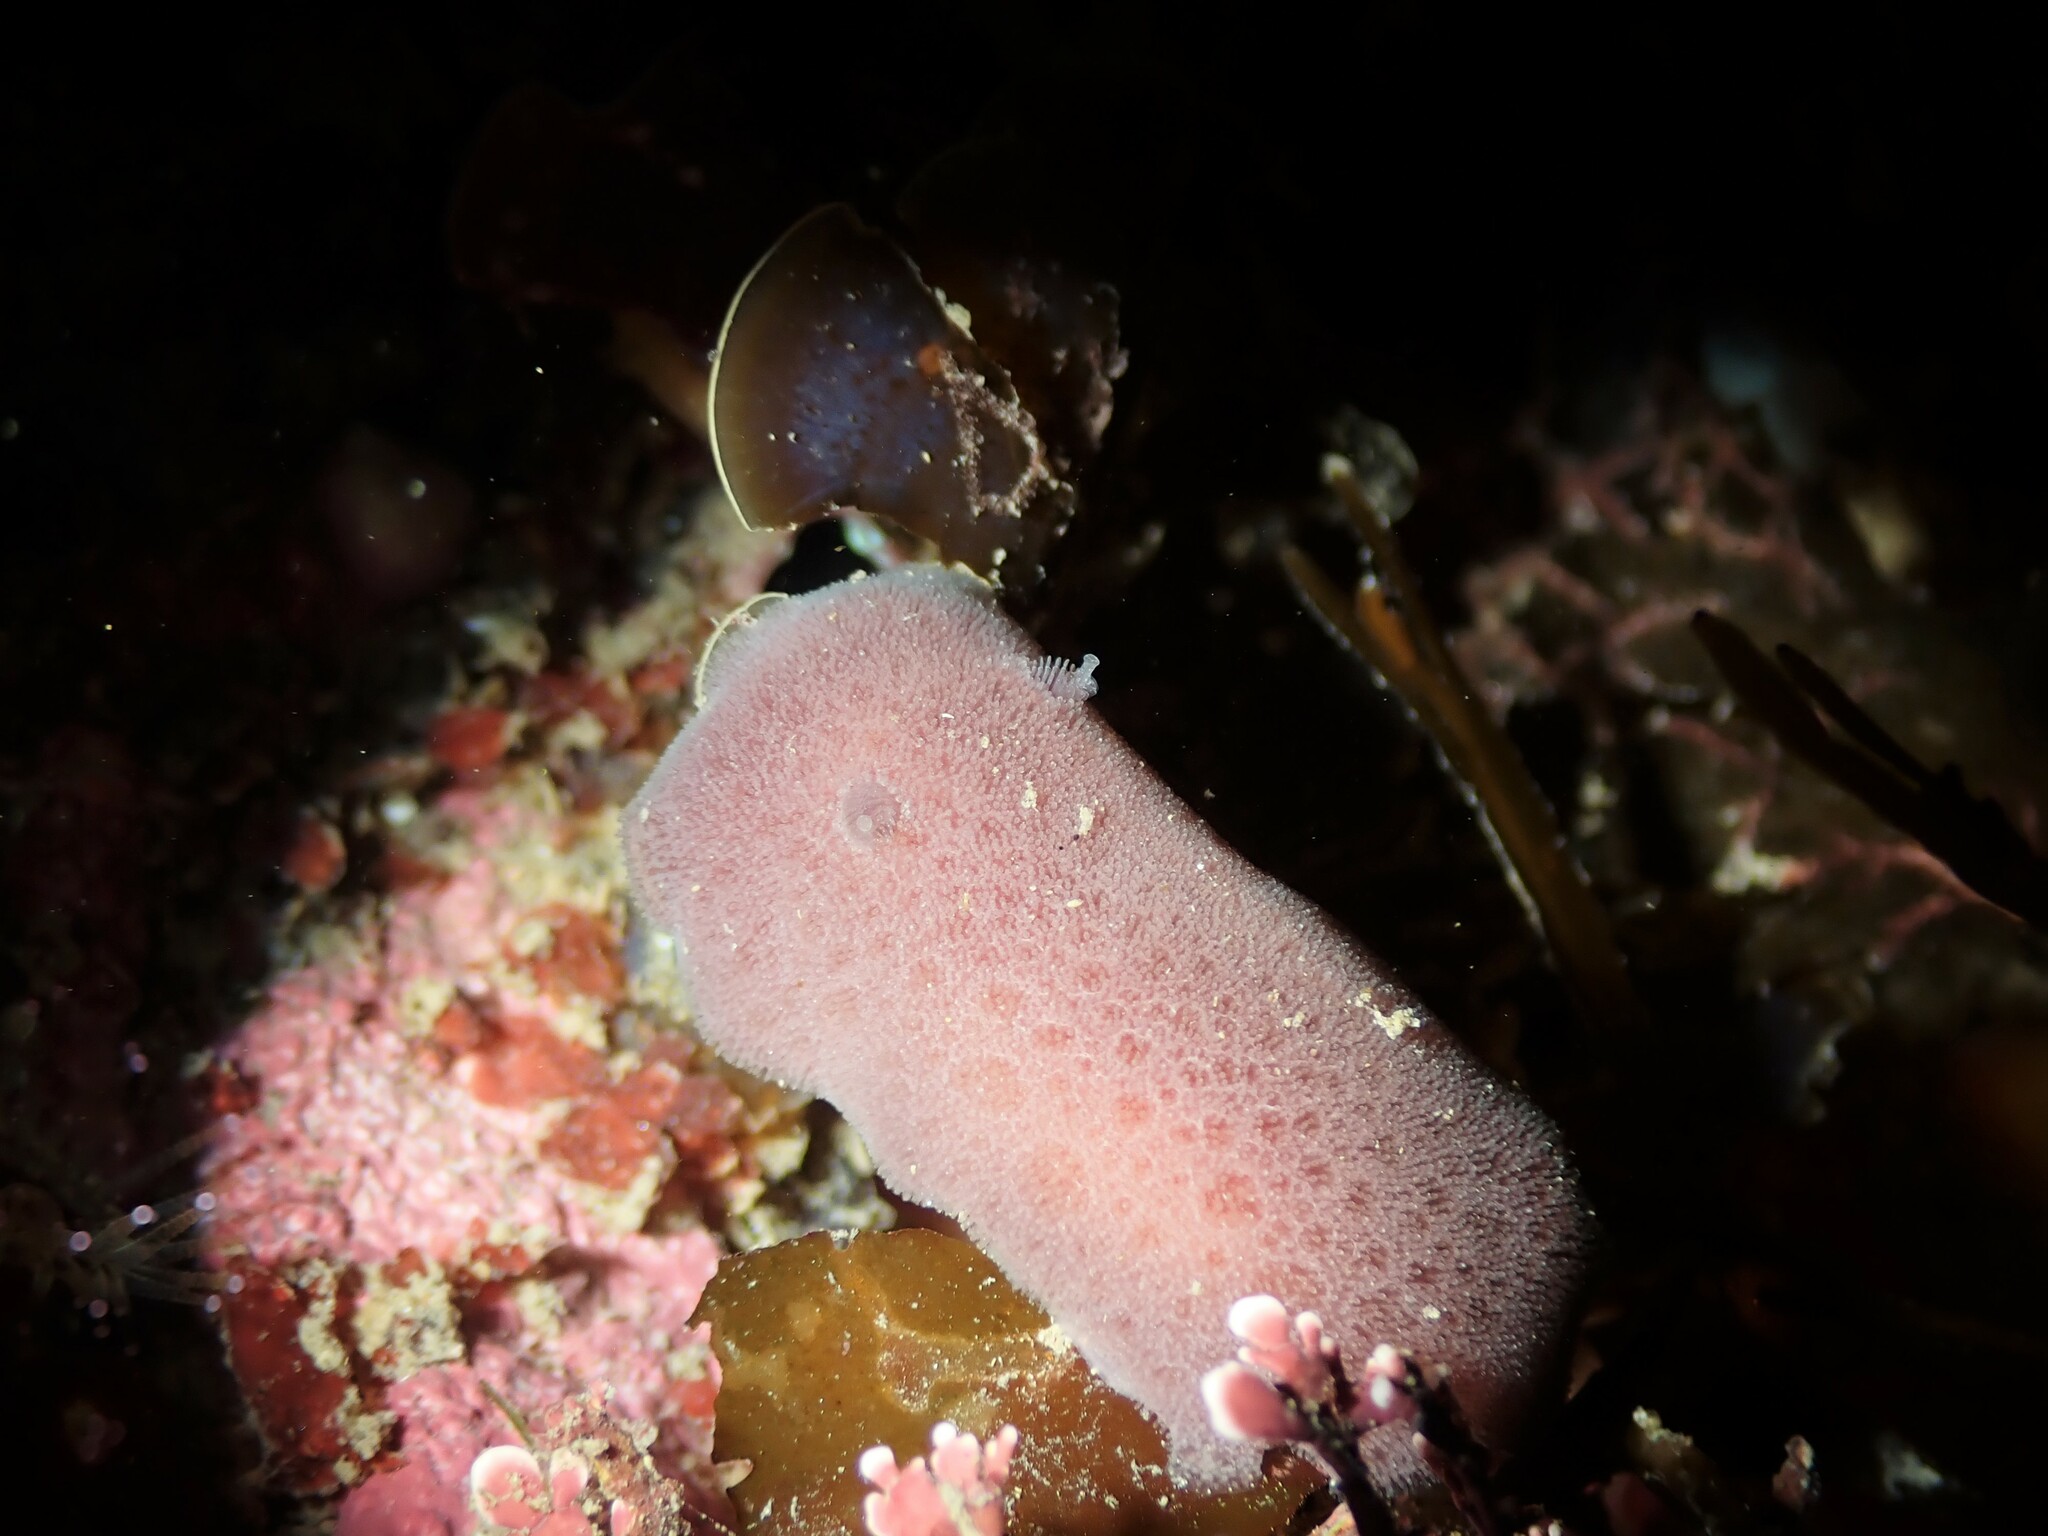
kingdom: Animalia
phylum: Mollusca
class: Gastropoda
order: Nudibranchia
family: Discodorididae
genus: Jorunna
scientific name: Jorunna ramicola
